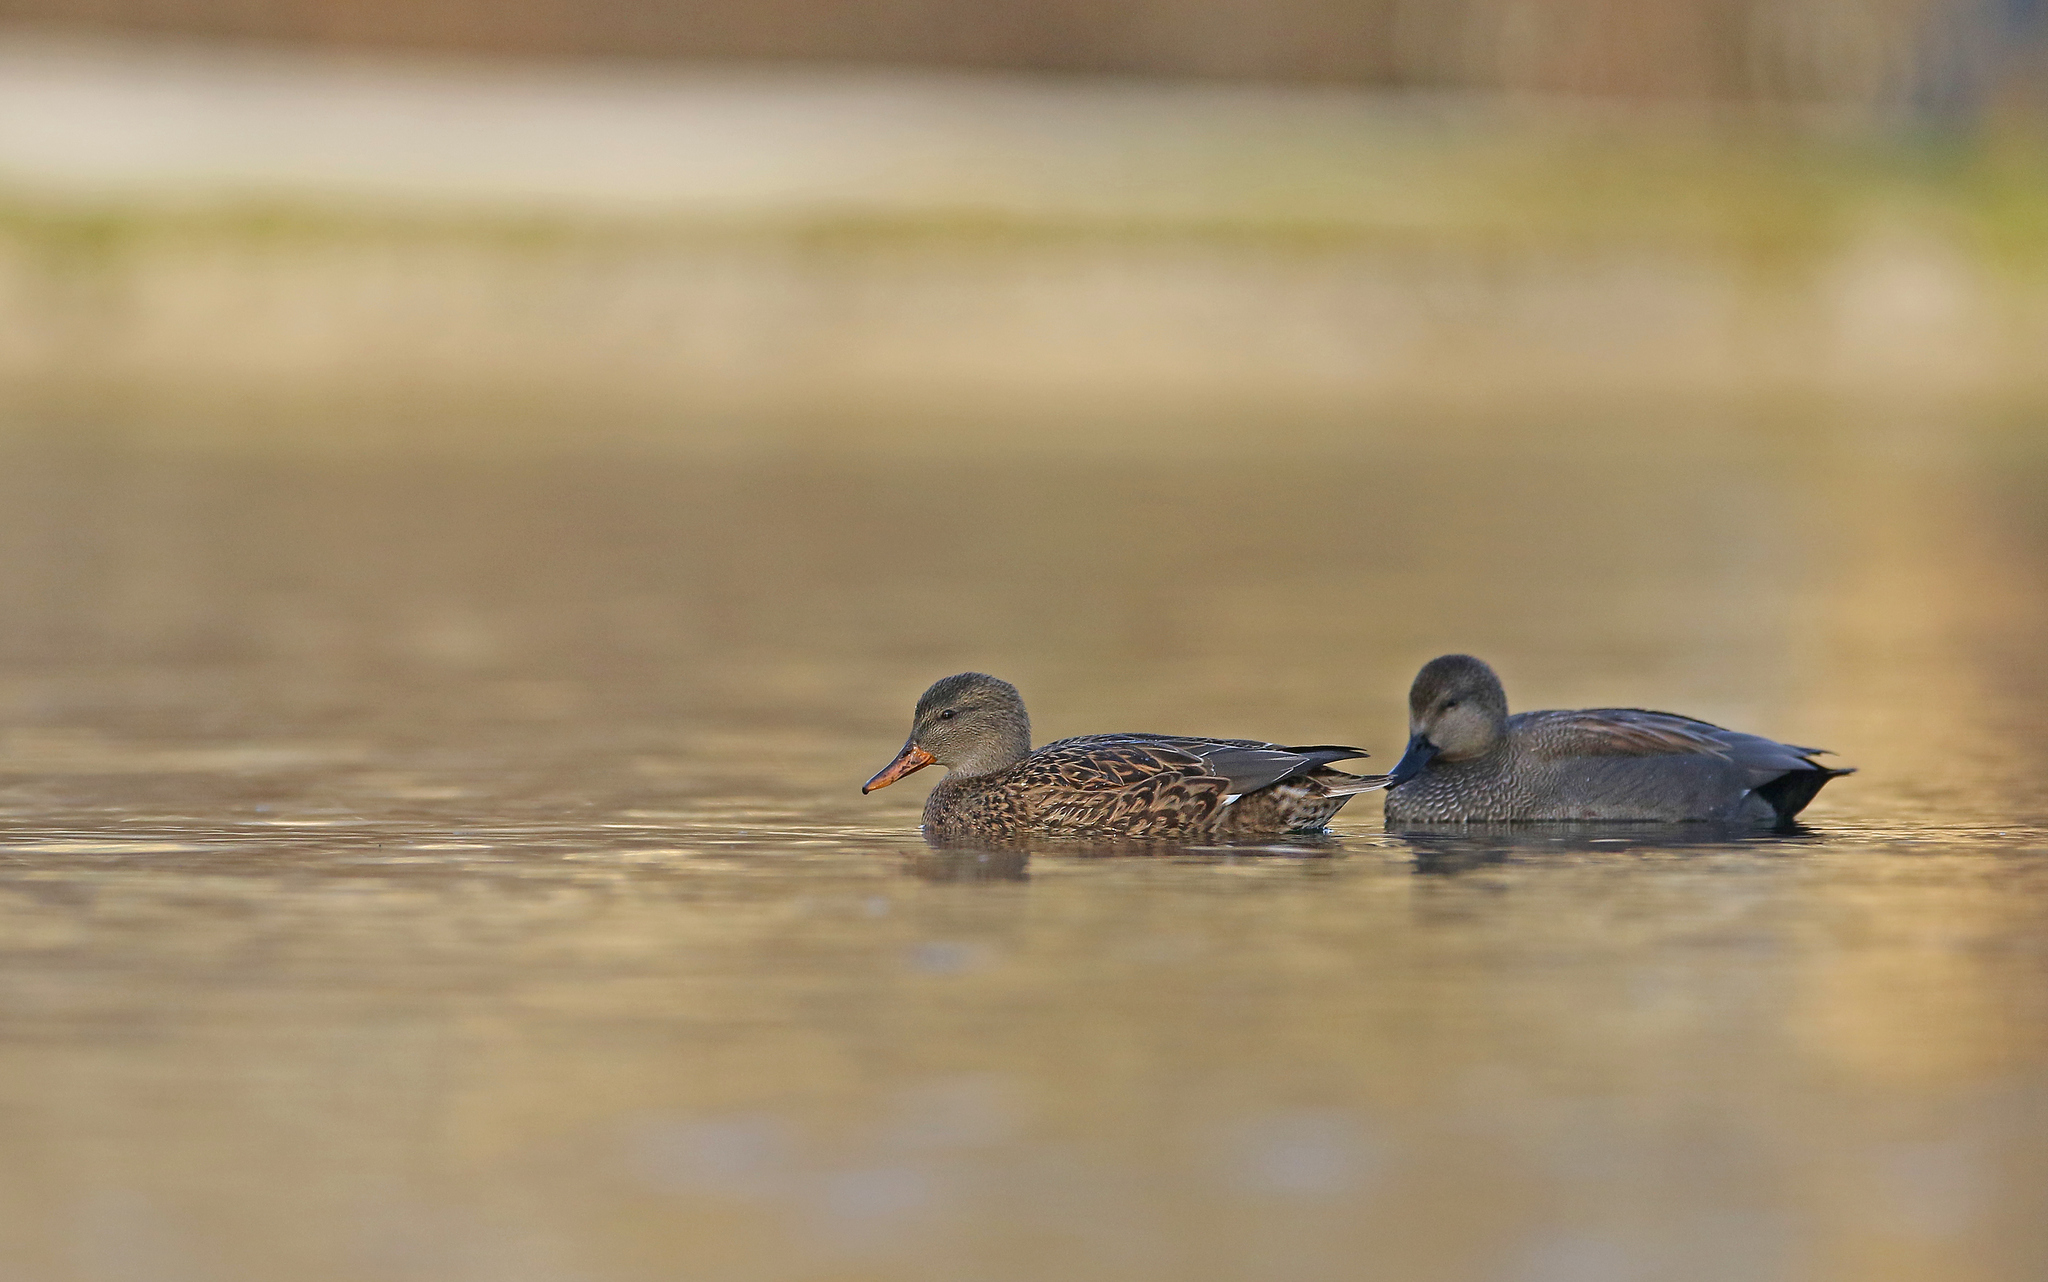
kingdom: Animalia
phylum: Chordata
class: Aves
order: Anseriformes
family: Anatidae
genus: Mareca
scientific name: Mareca strepera
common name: Gadwall
